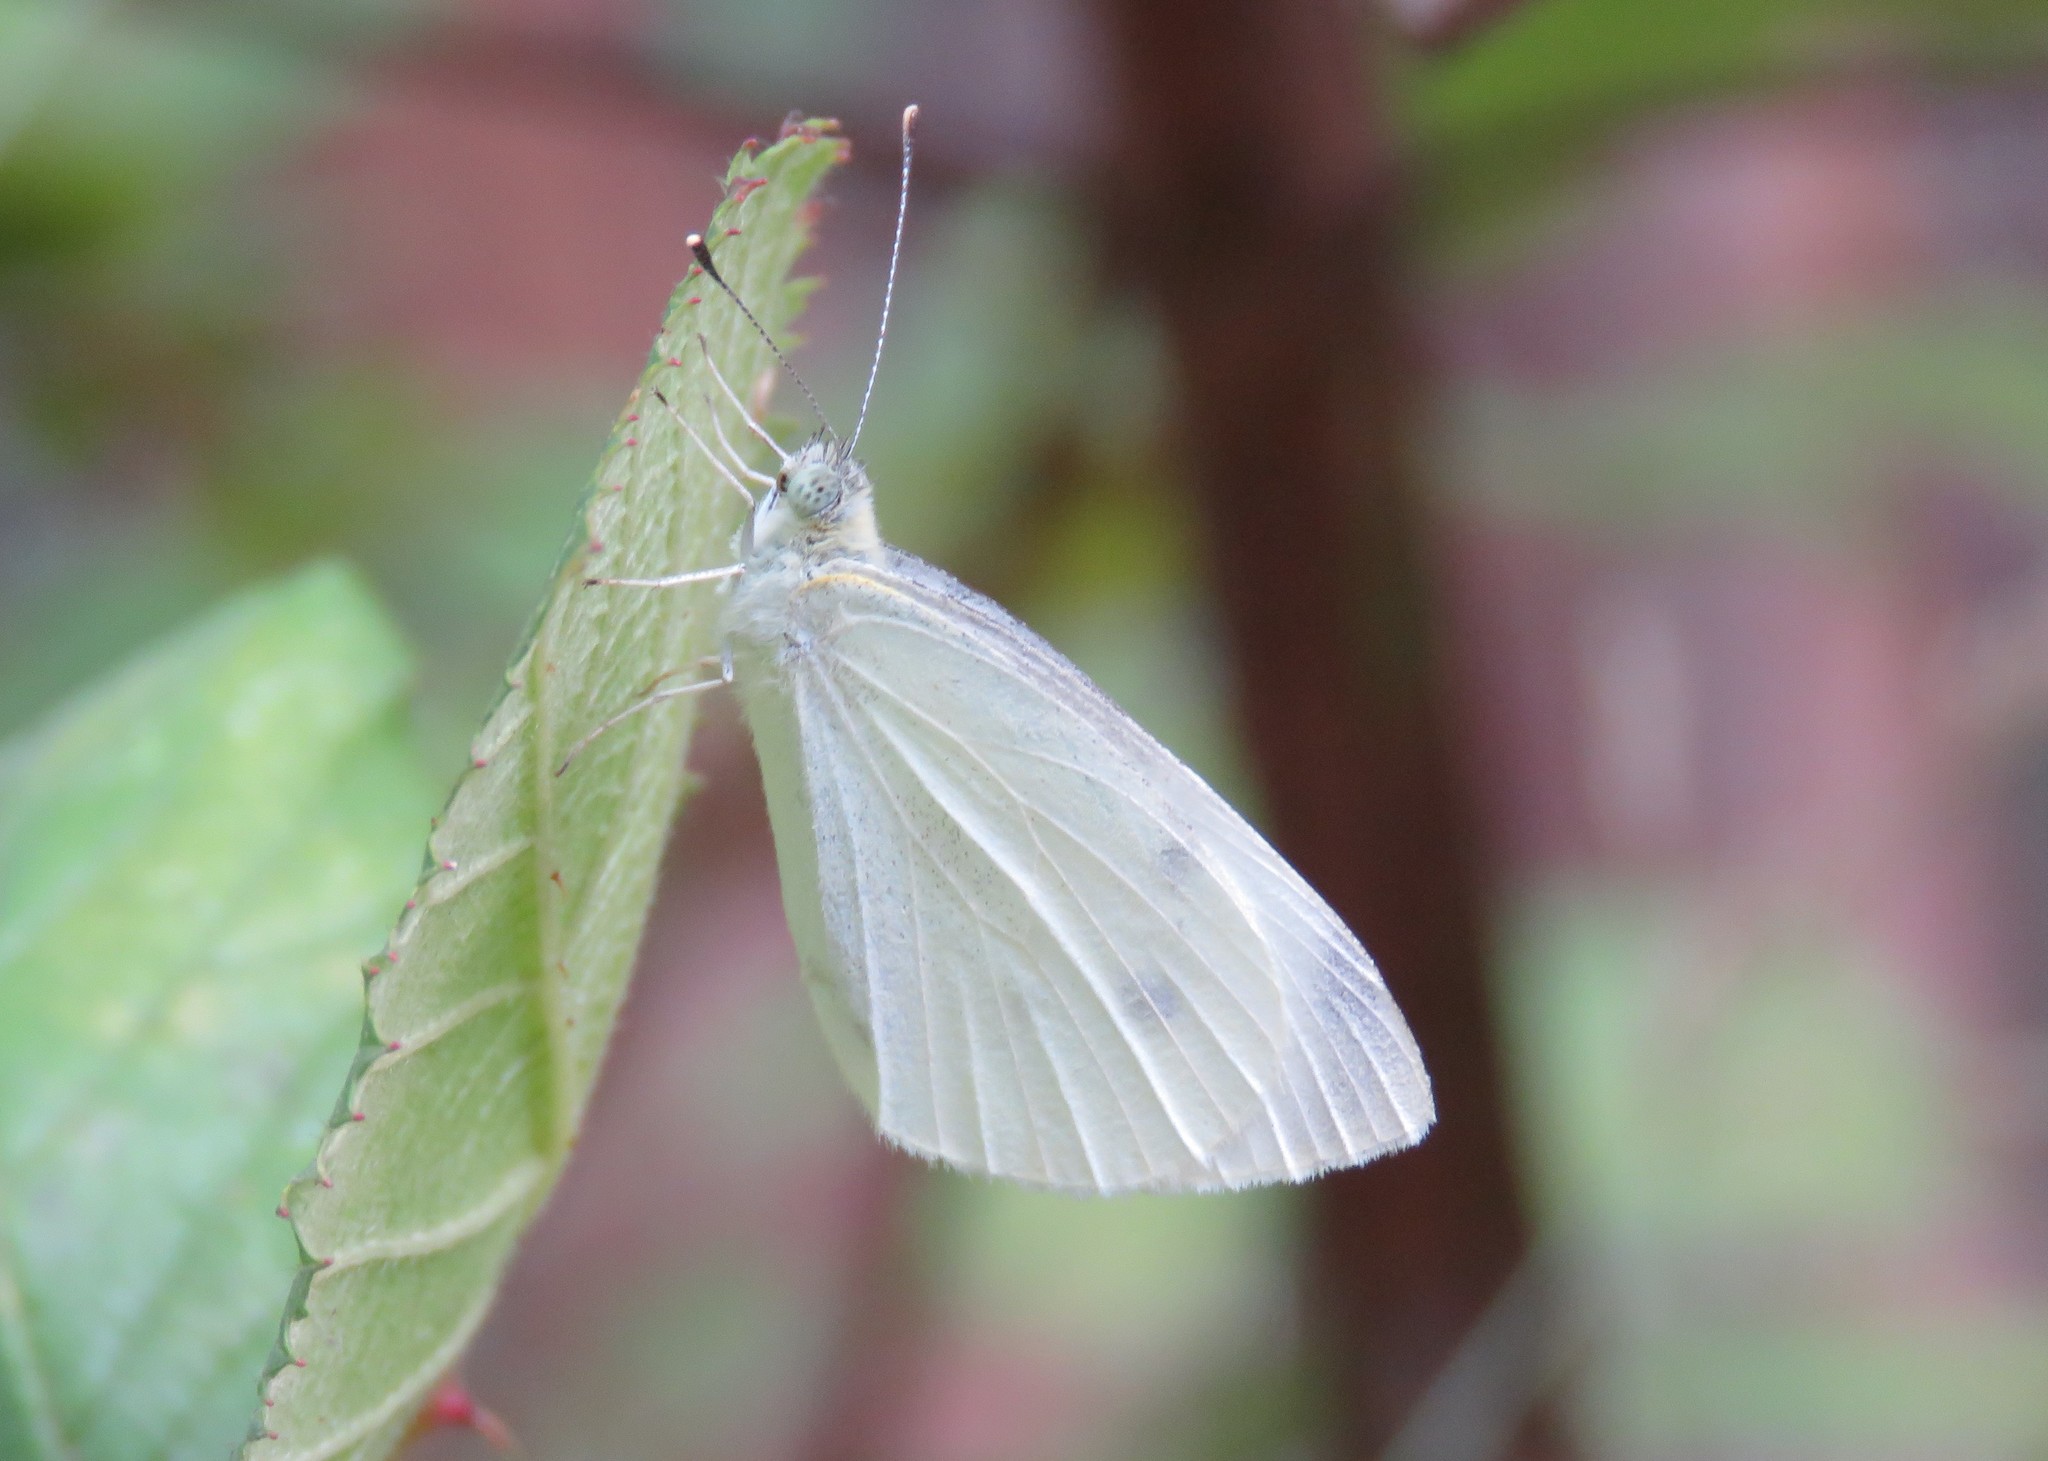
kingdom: Animalia
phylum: Arthropoda
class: Insecta
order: Lepidoptera
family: Pieridae
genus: Pieris
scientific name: Pieris rapae
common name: Small white
